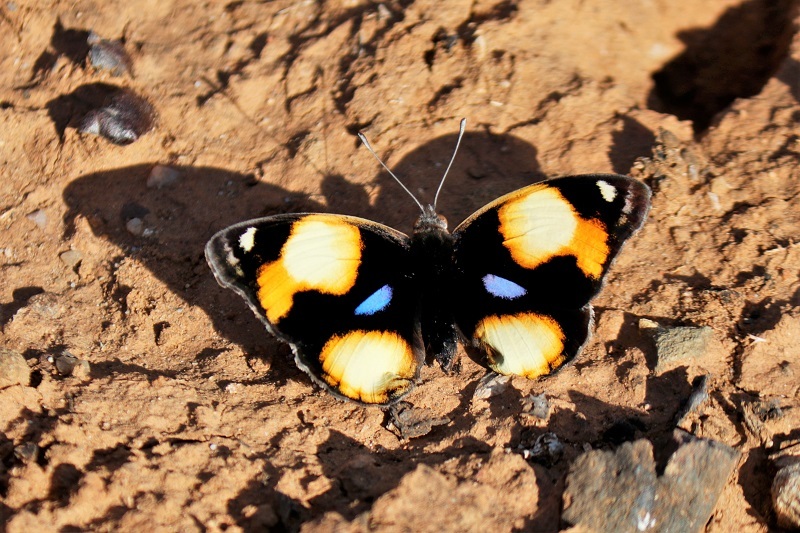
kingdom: Animalia
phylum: Arthropoda
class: Insecta
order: Lepidoptera
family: Nymphalidae
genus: Junonia
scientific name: Junonia hierta
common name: Yellow pansy
